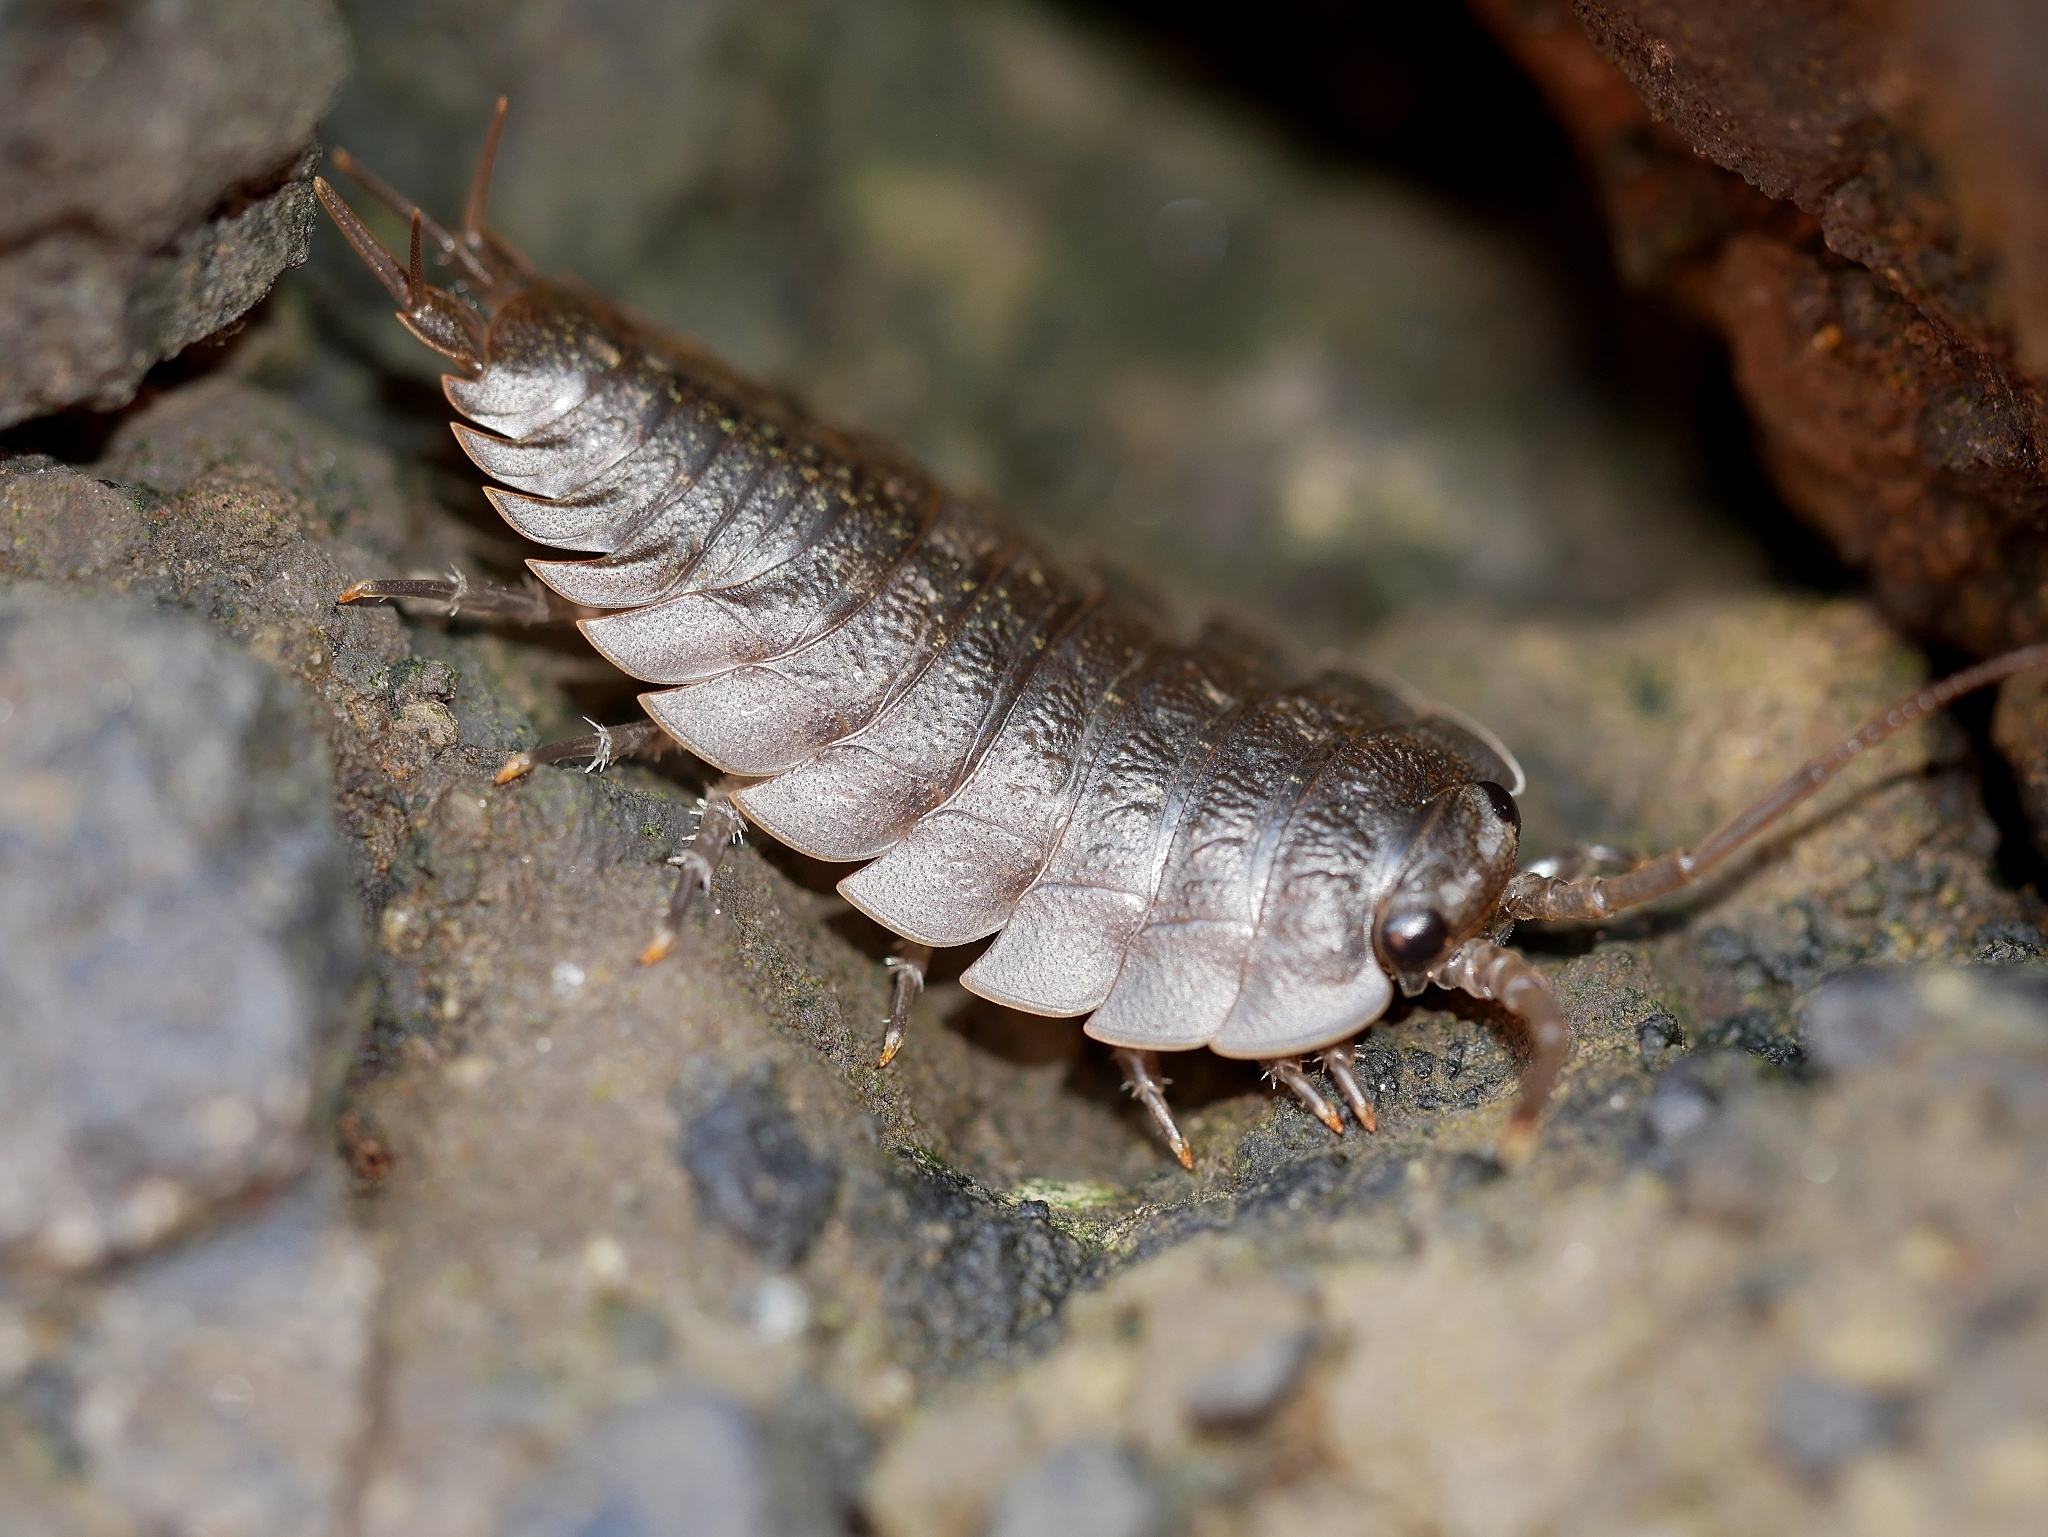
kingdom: Animalia
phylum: Arthropoda
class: Malacostraca
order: Isopoda
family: Ligiidae
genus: Ligia
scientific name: Ligia pallasii
